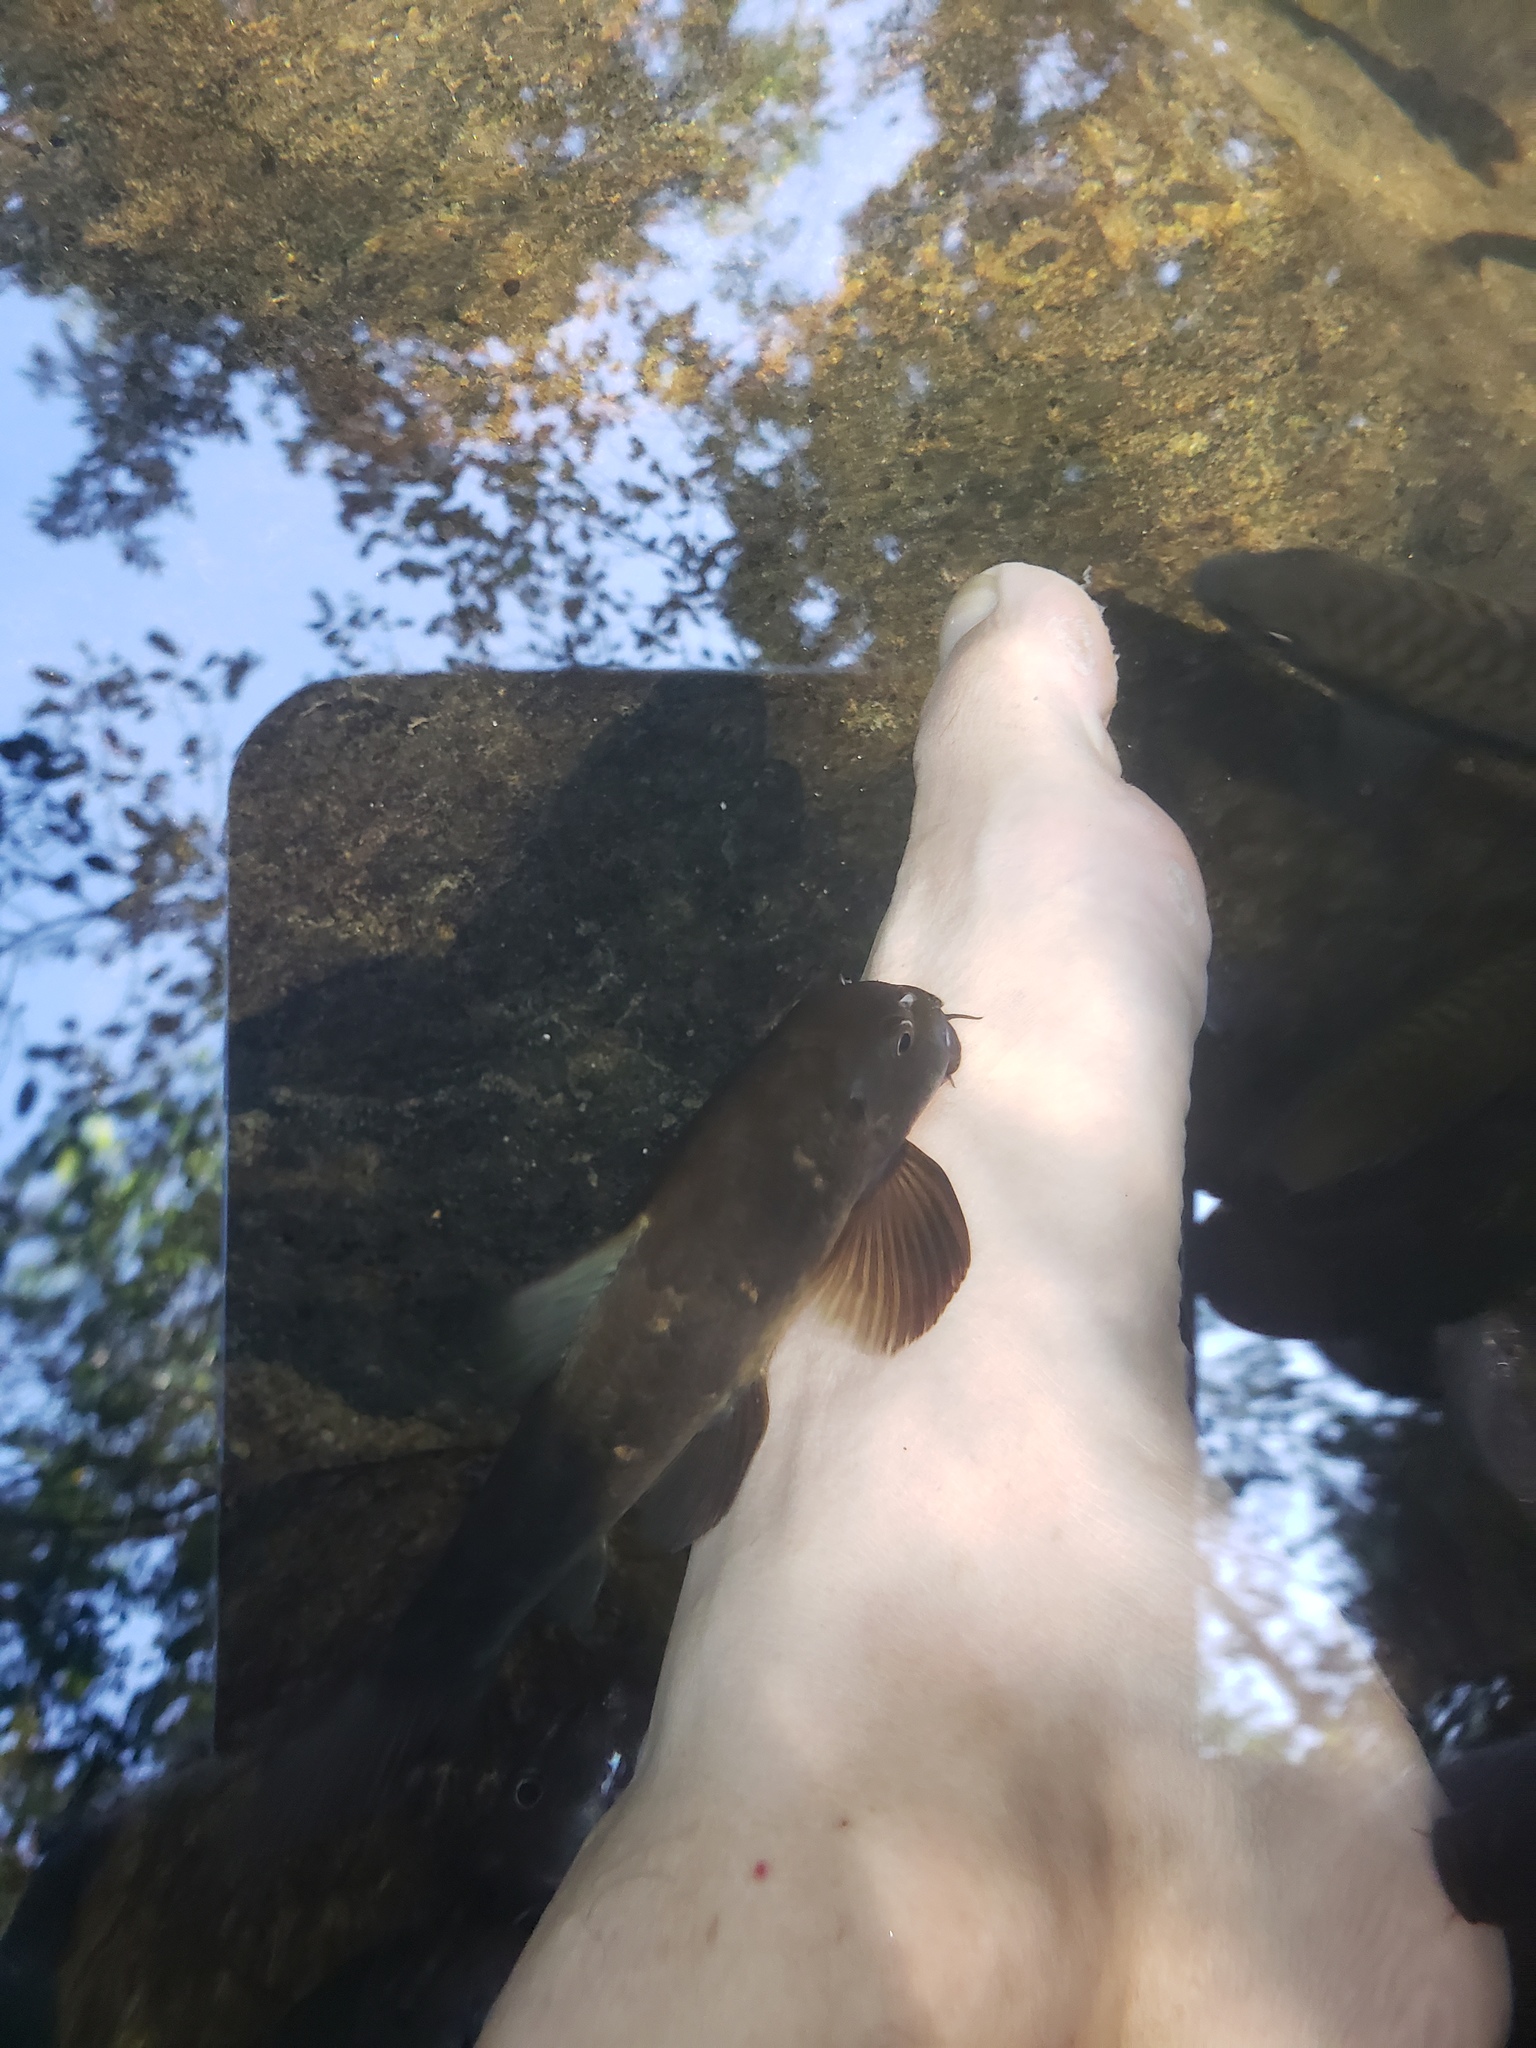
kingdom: Animalia
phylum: Chordata
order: Cypriniformes
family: Cyprinidae
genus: Garra
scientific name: Garra ceylonensis
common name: Stone sucker
